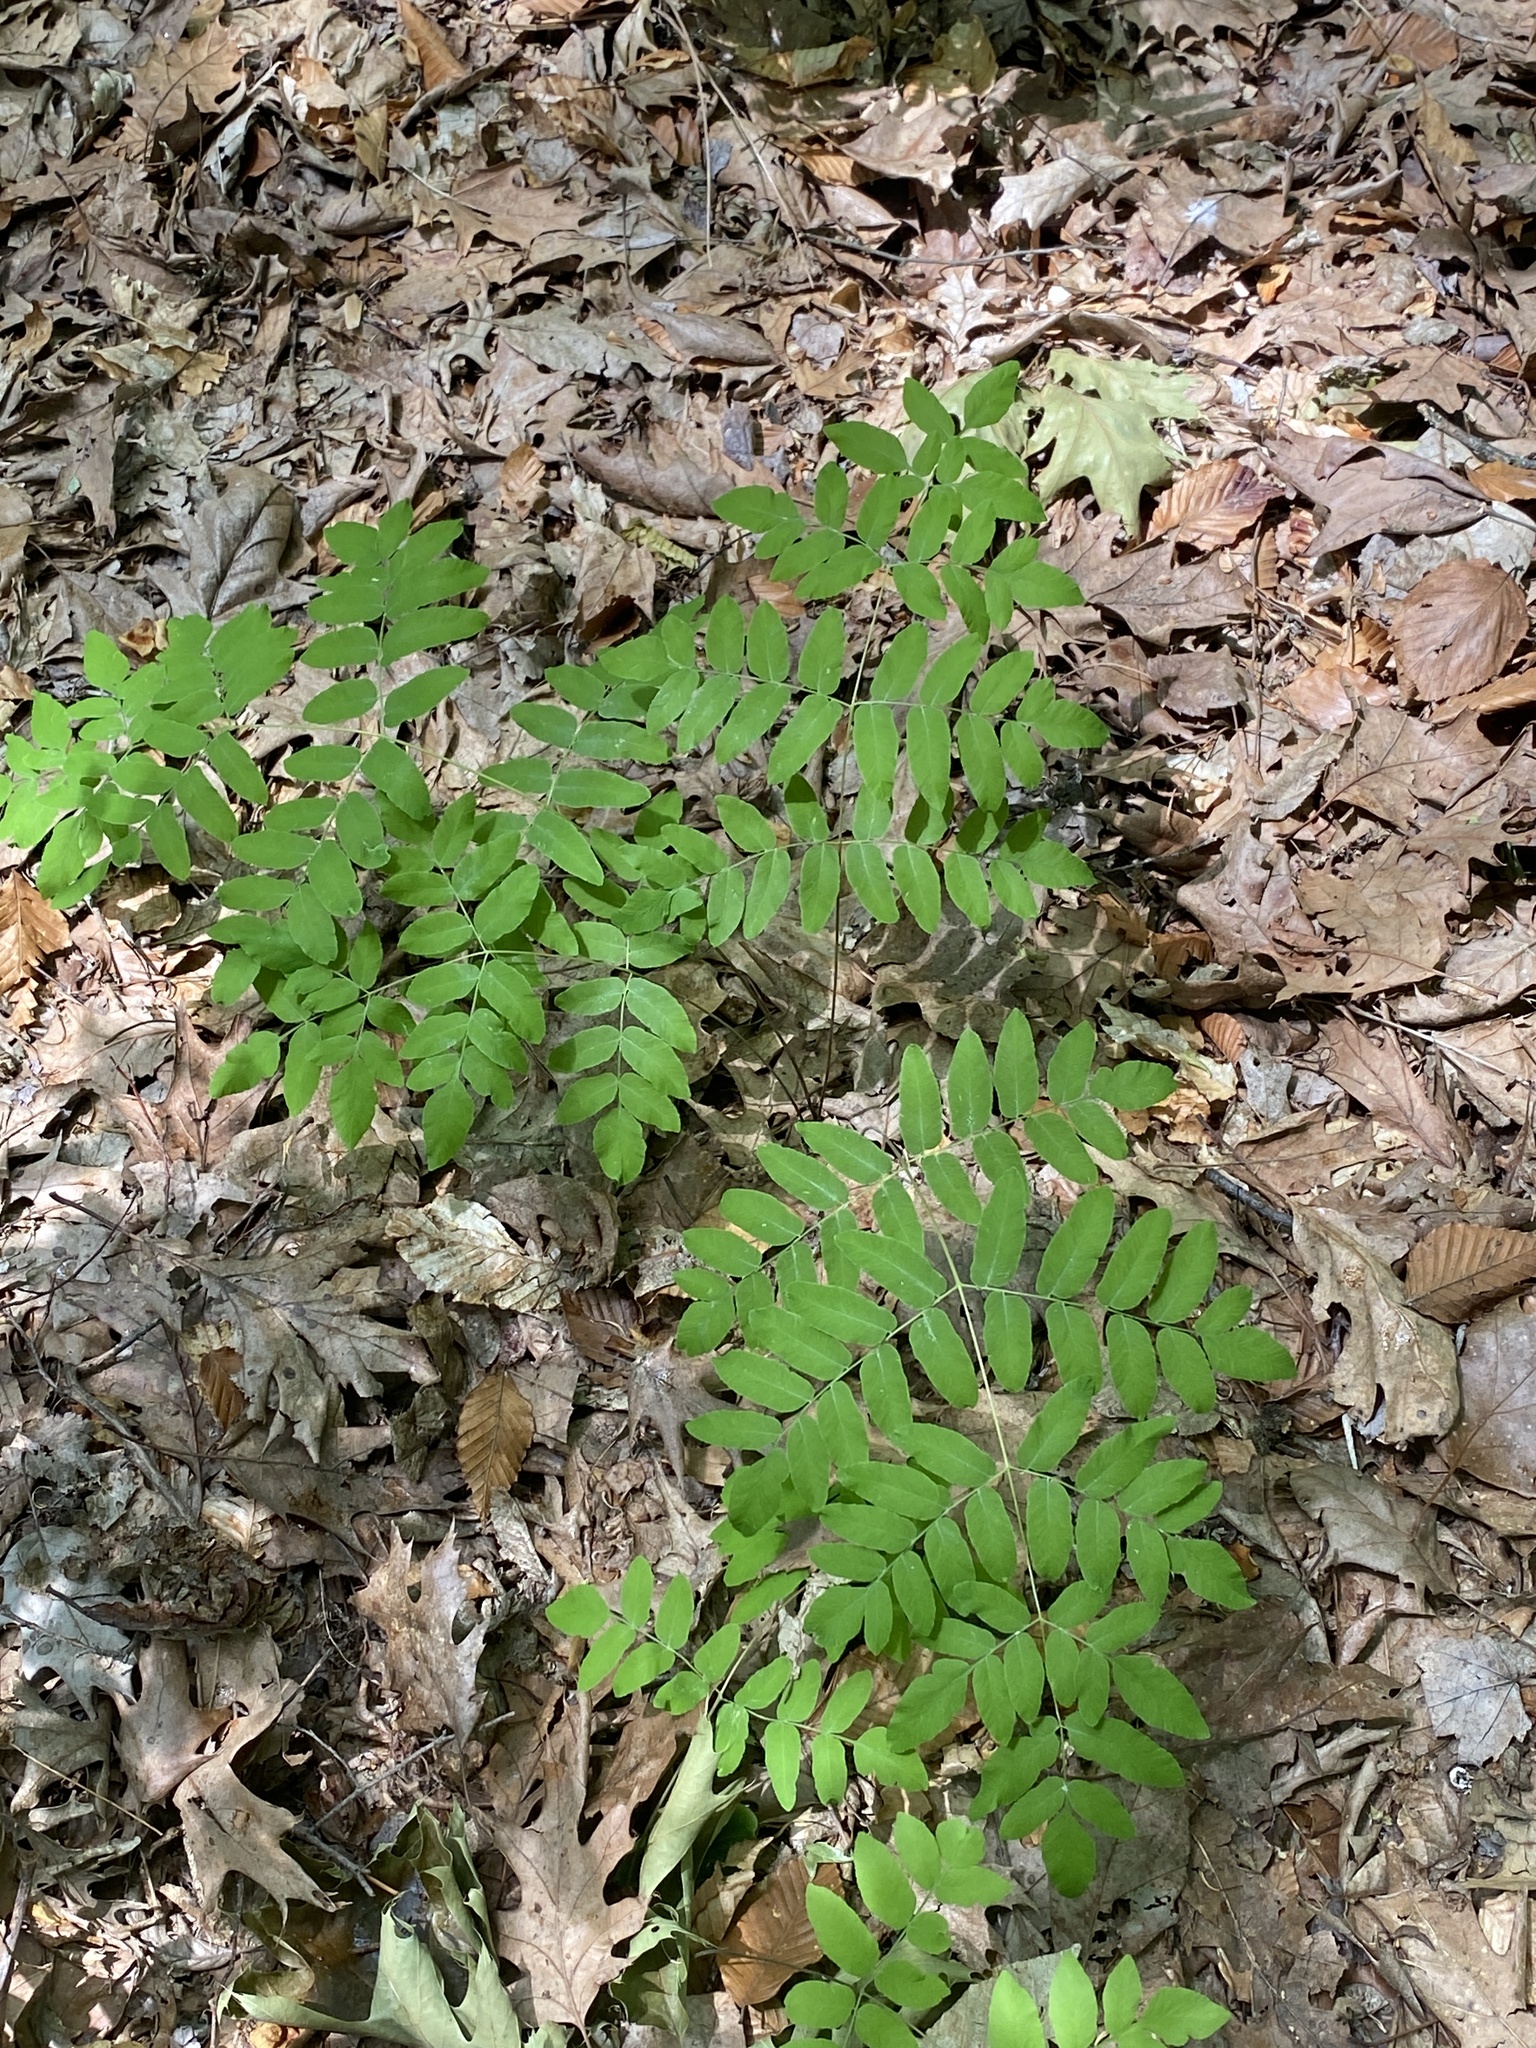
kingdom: Plantae
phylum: Tracheophyta
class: Polypodiopsida
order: Osmundales
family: Osmundaceae
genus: Osmunda
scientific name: Osmunda spectabilis
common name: American royal fern
